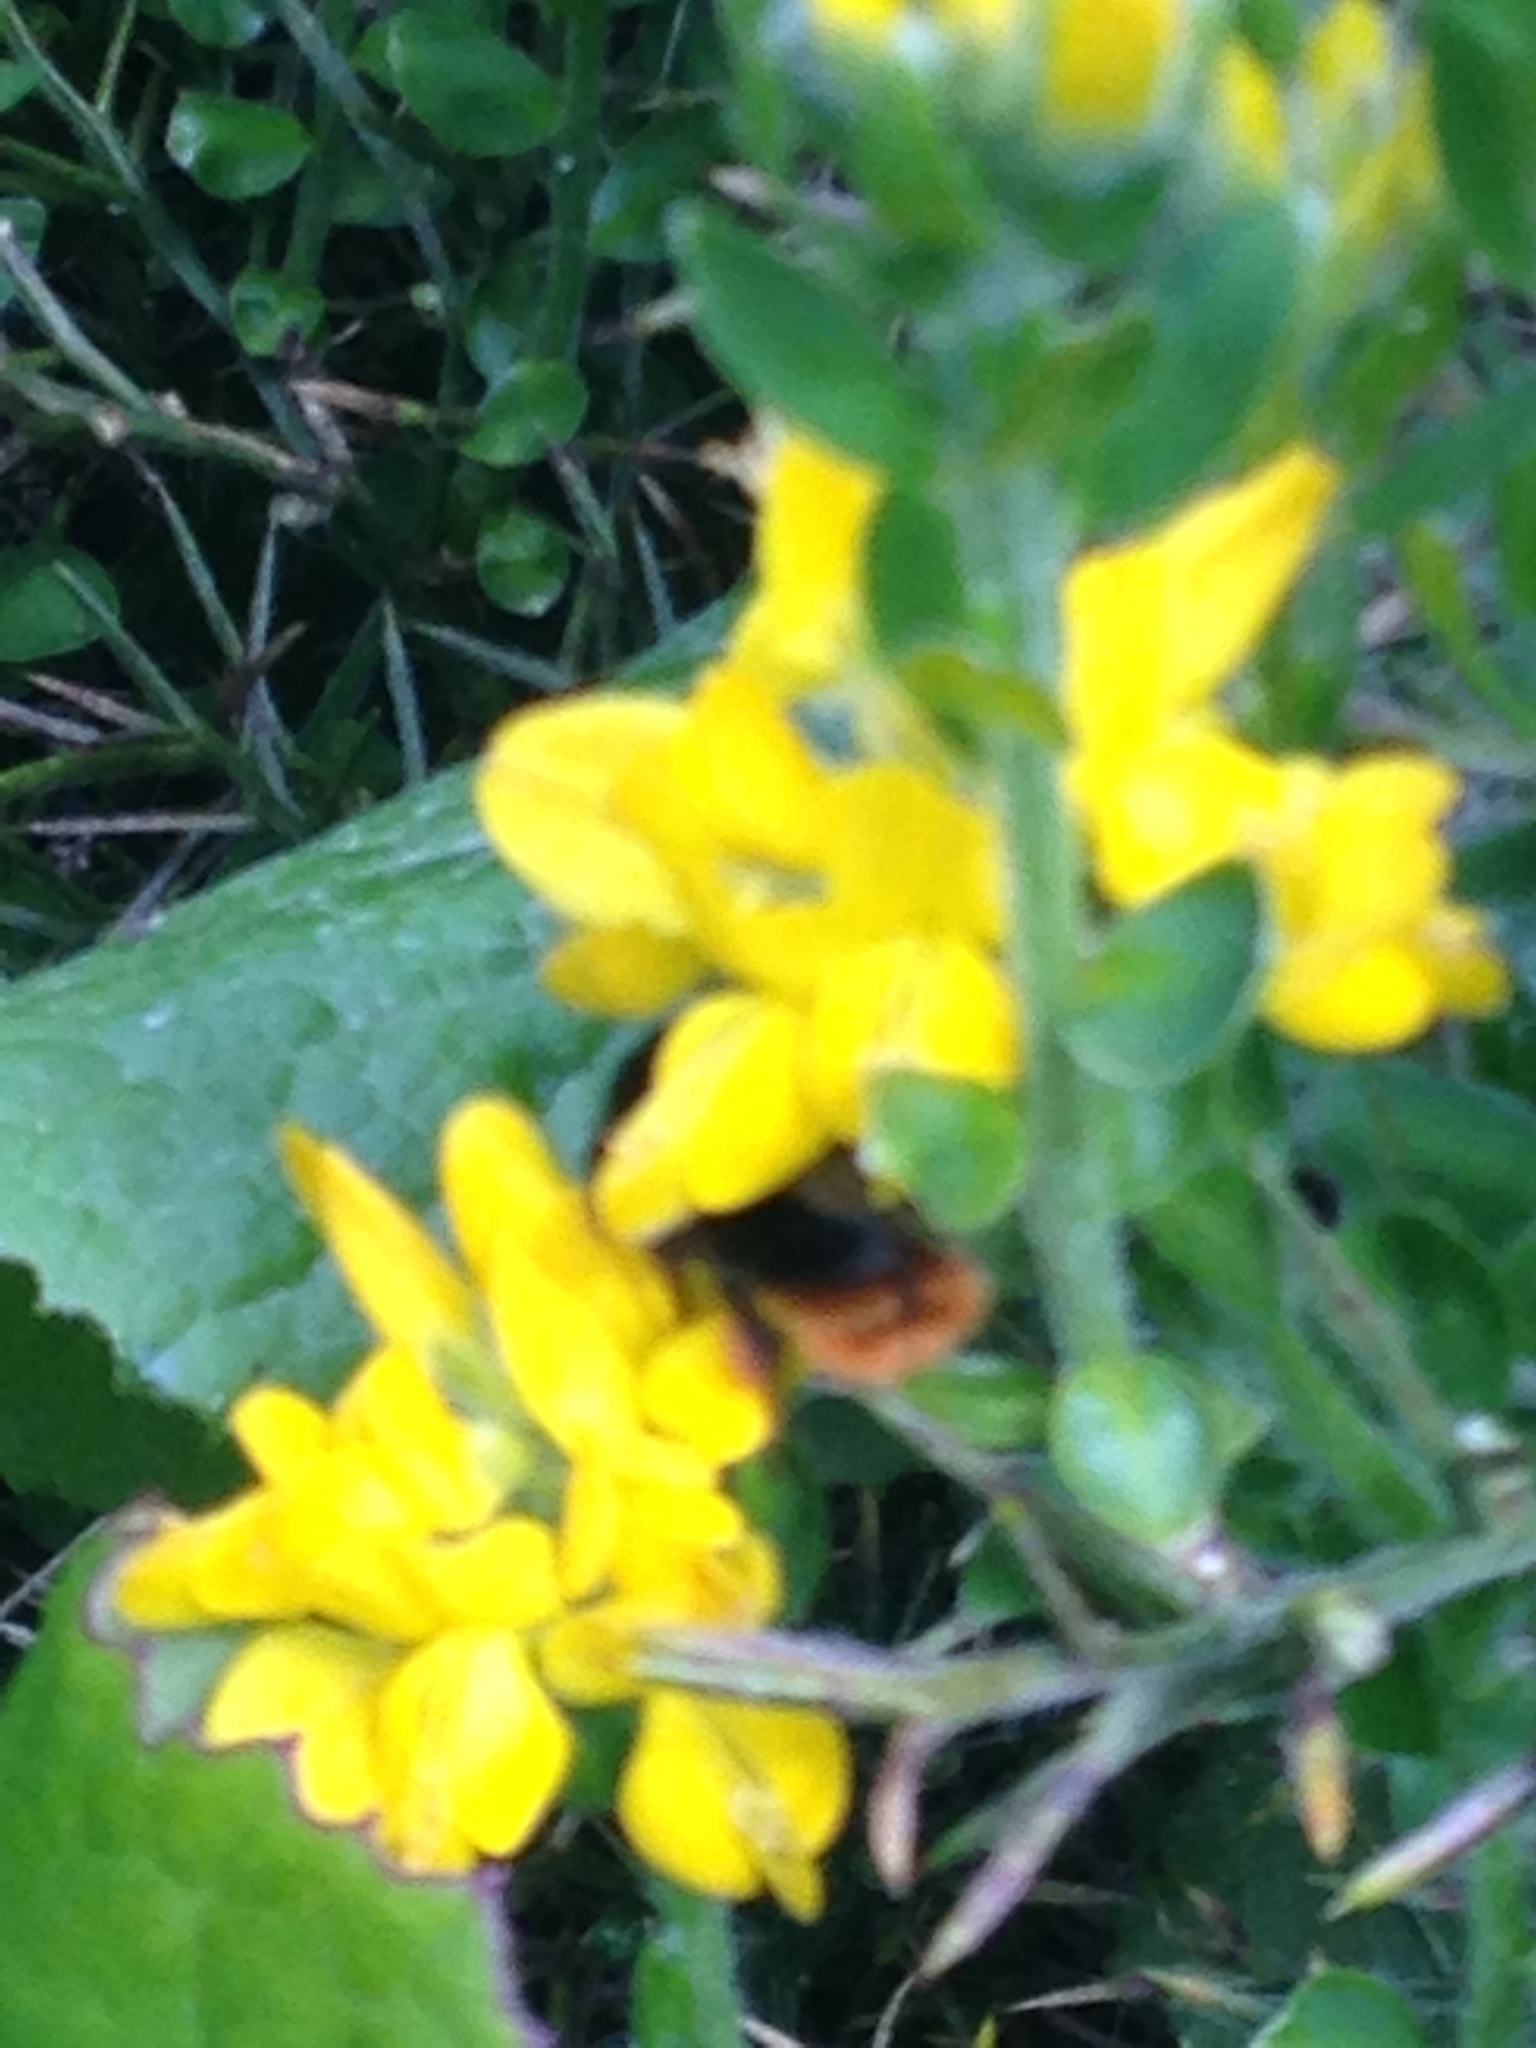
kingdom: Animalia
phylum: Arthropoda
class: Insecta
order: Hymenoptera
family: Apidae
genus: Bombus
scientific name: Bombus lapidarius
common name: Large red-tailed humble-bee
